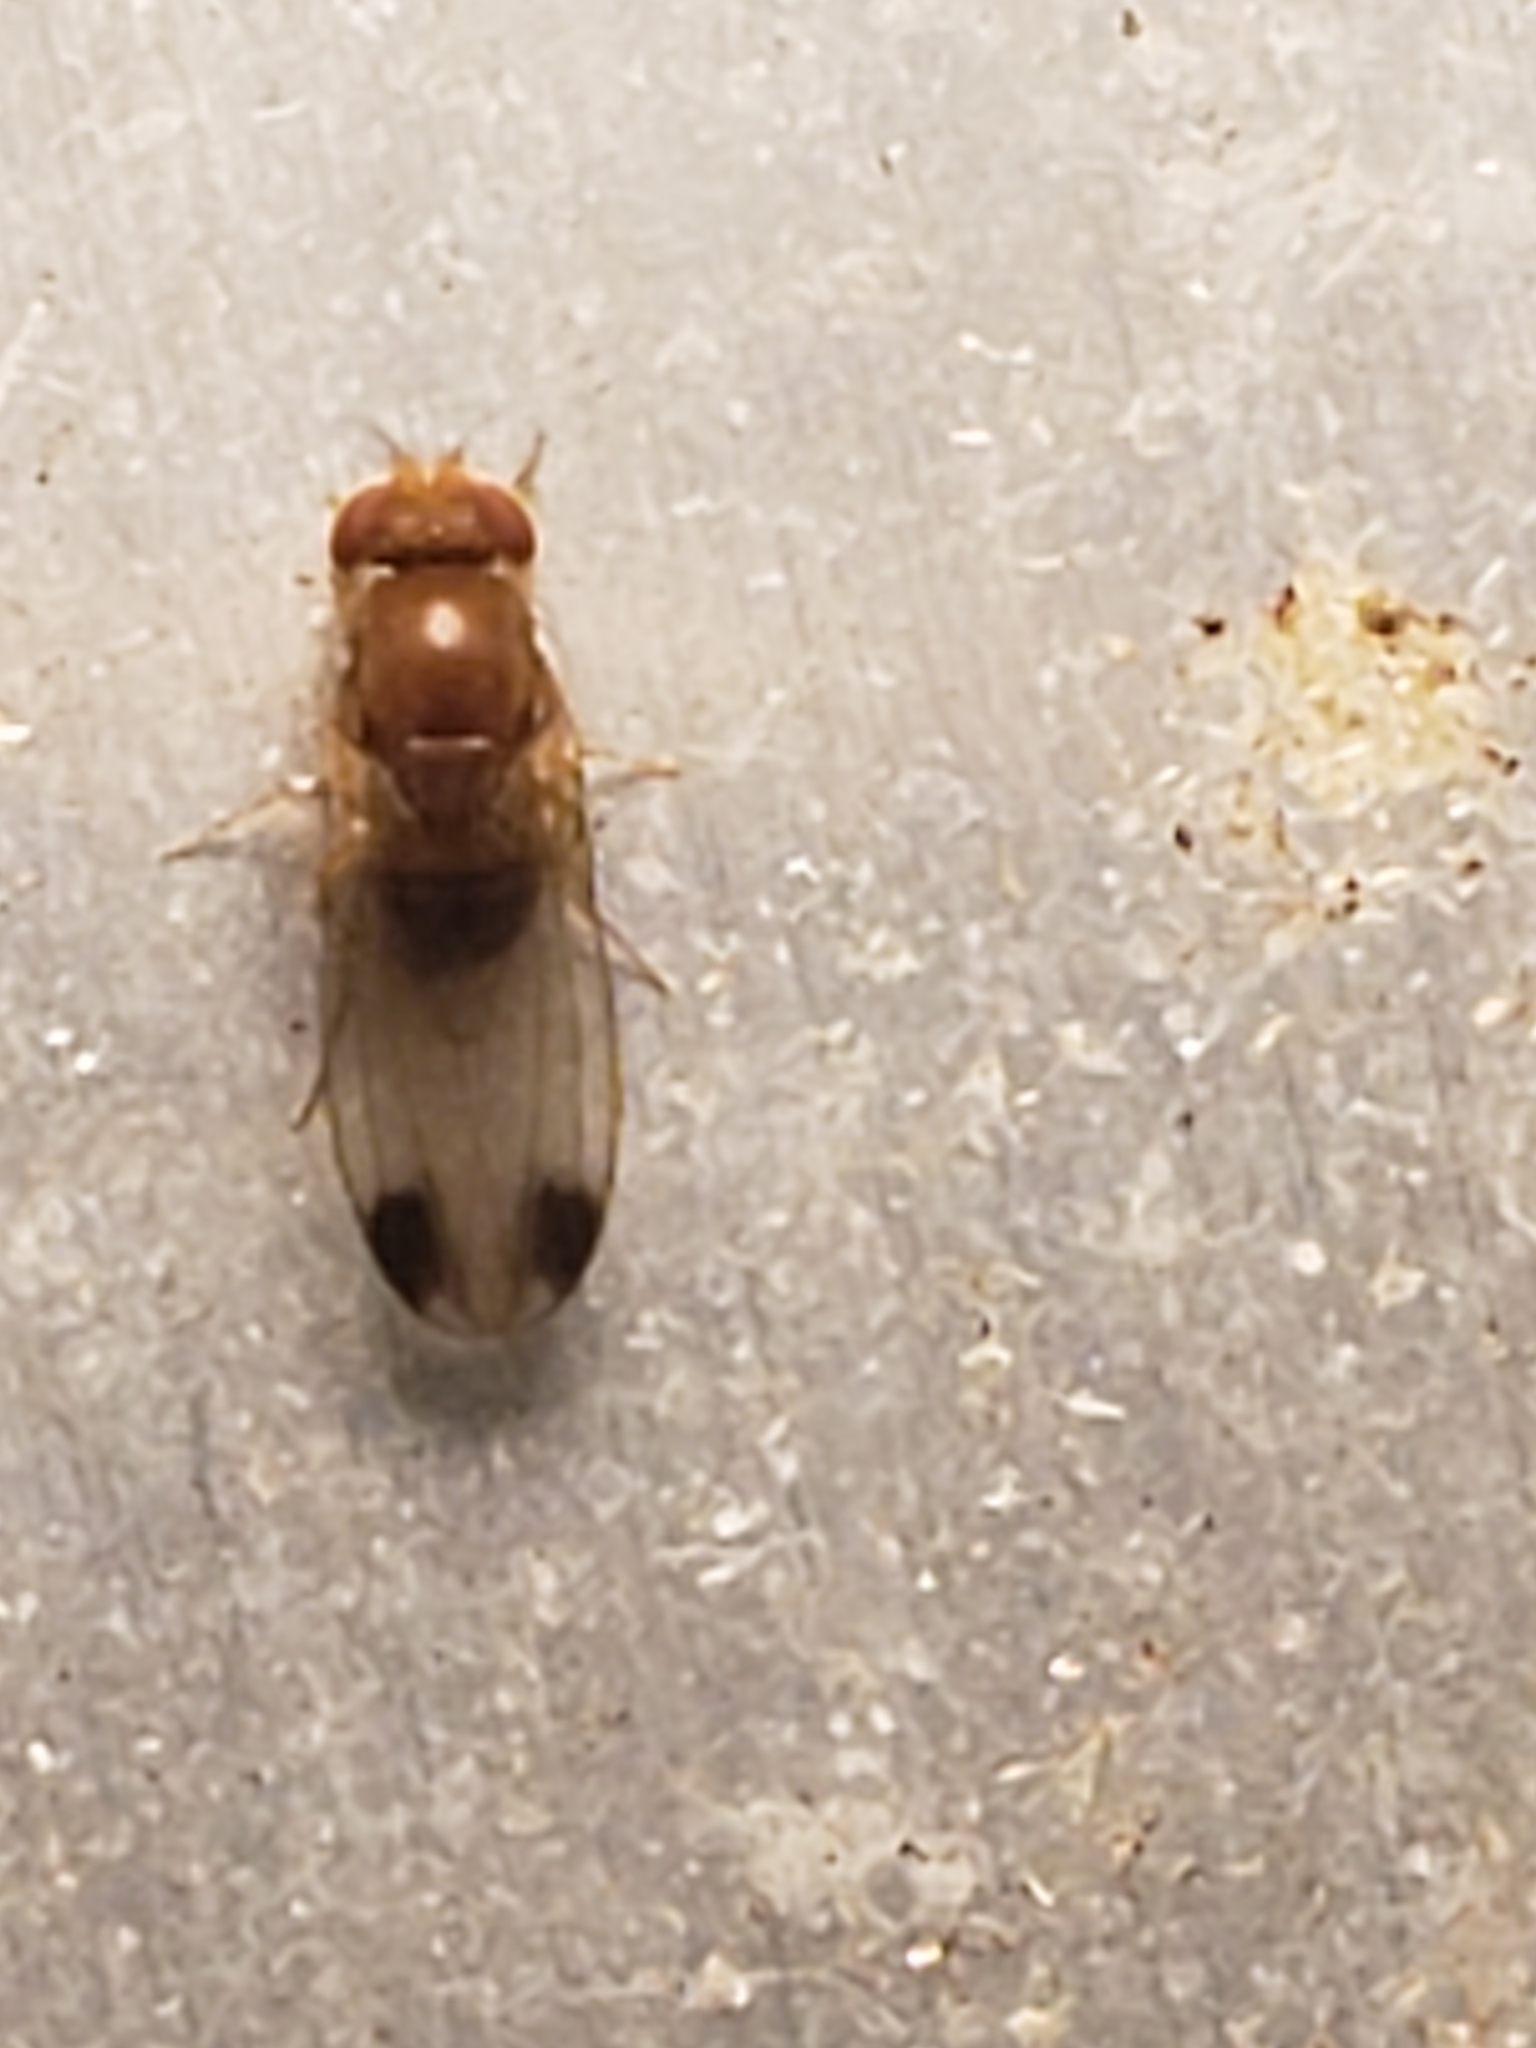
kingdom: Animalia
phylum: Arthropoda
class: Insecta
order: Diptera
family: Drosophilidae
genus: Drosophila
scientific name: Drosophila suzukii
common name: Spotted-wing drosophila
